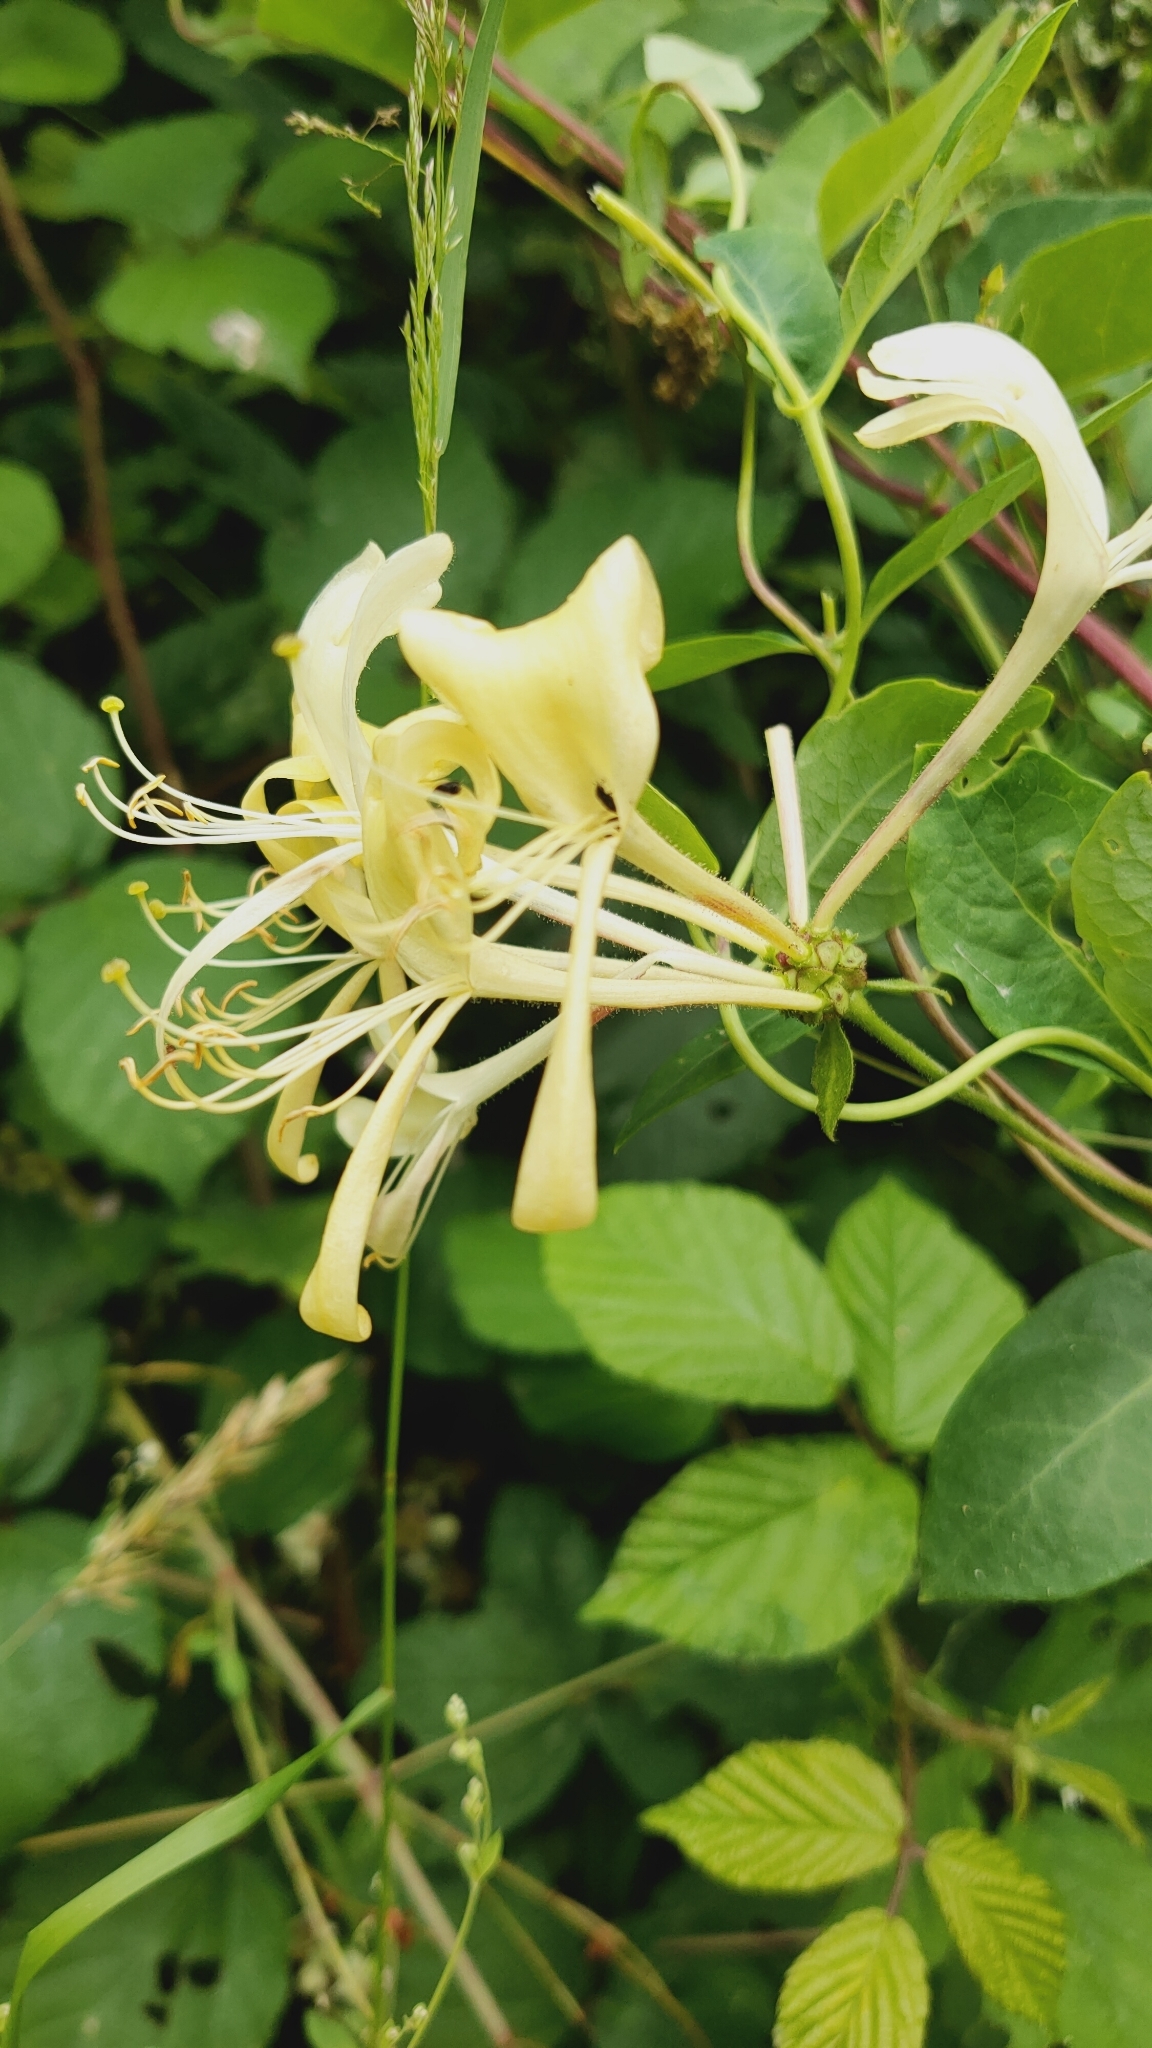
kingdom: Plantae
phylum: Tracheophyta
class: Magnoliopsida
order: Dipsacales
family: Caprifoliaceae
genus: Lonicera
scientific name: Lonicera periclymenum
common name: European honeysuckle
